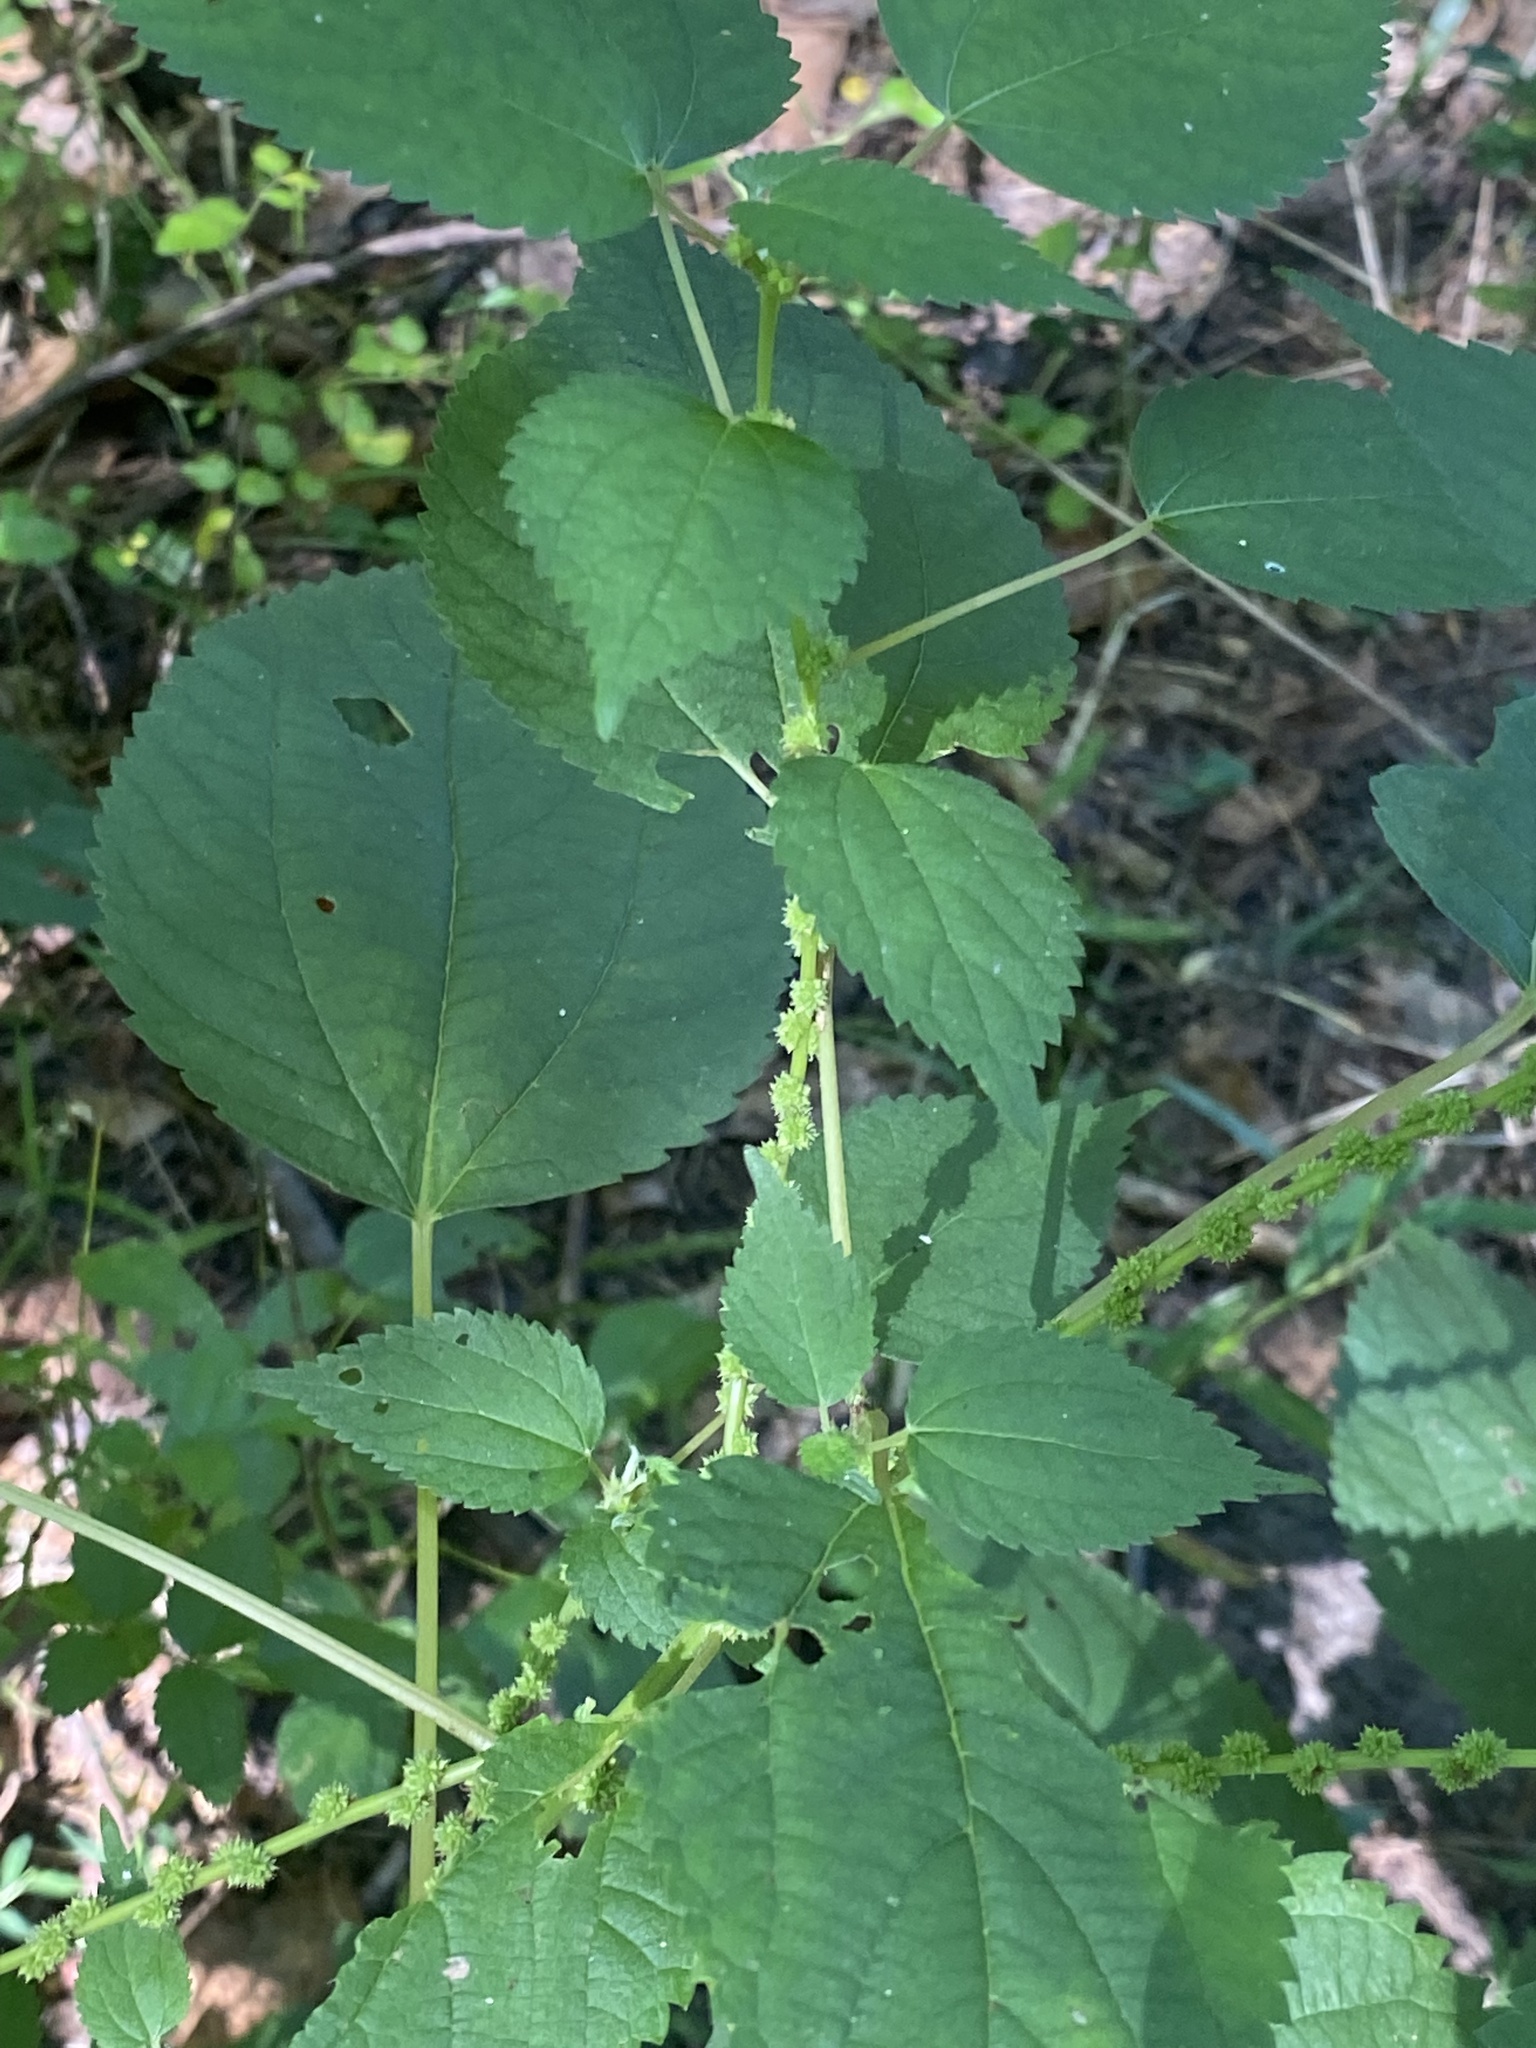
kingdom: Plantae
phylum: Tracheophyta
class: Magnoliopsida
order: Rosales
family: Urticaceae
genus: Boehmeria
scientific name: Boehmeria cylindrica
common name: Bog-hemp
